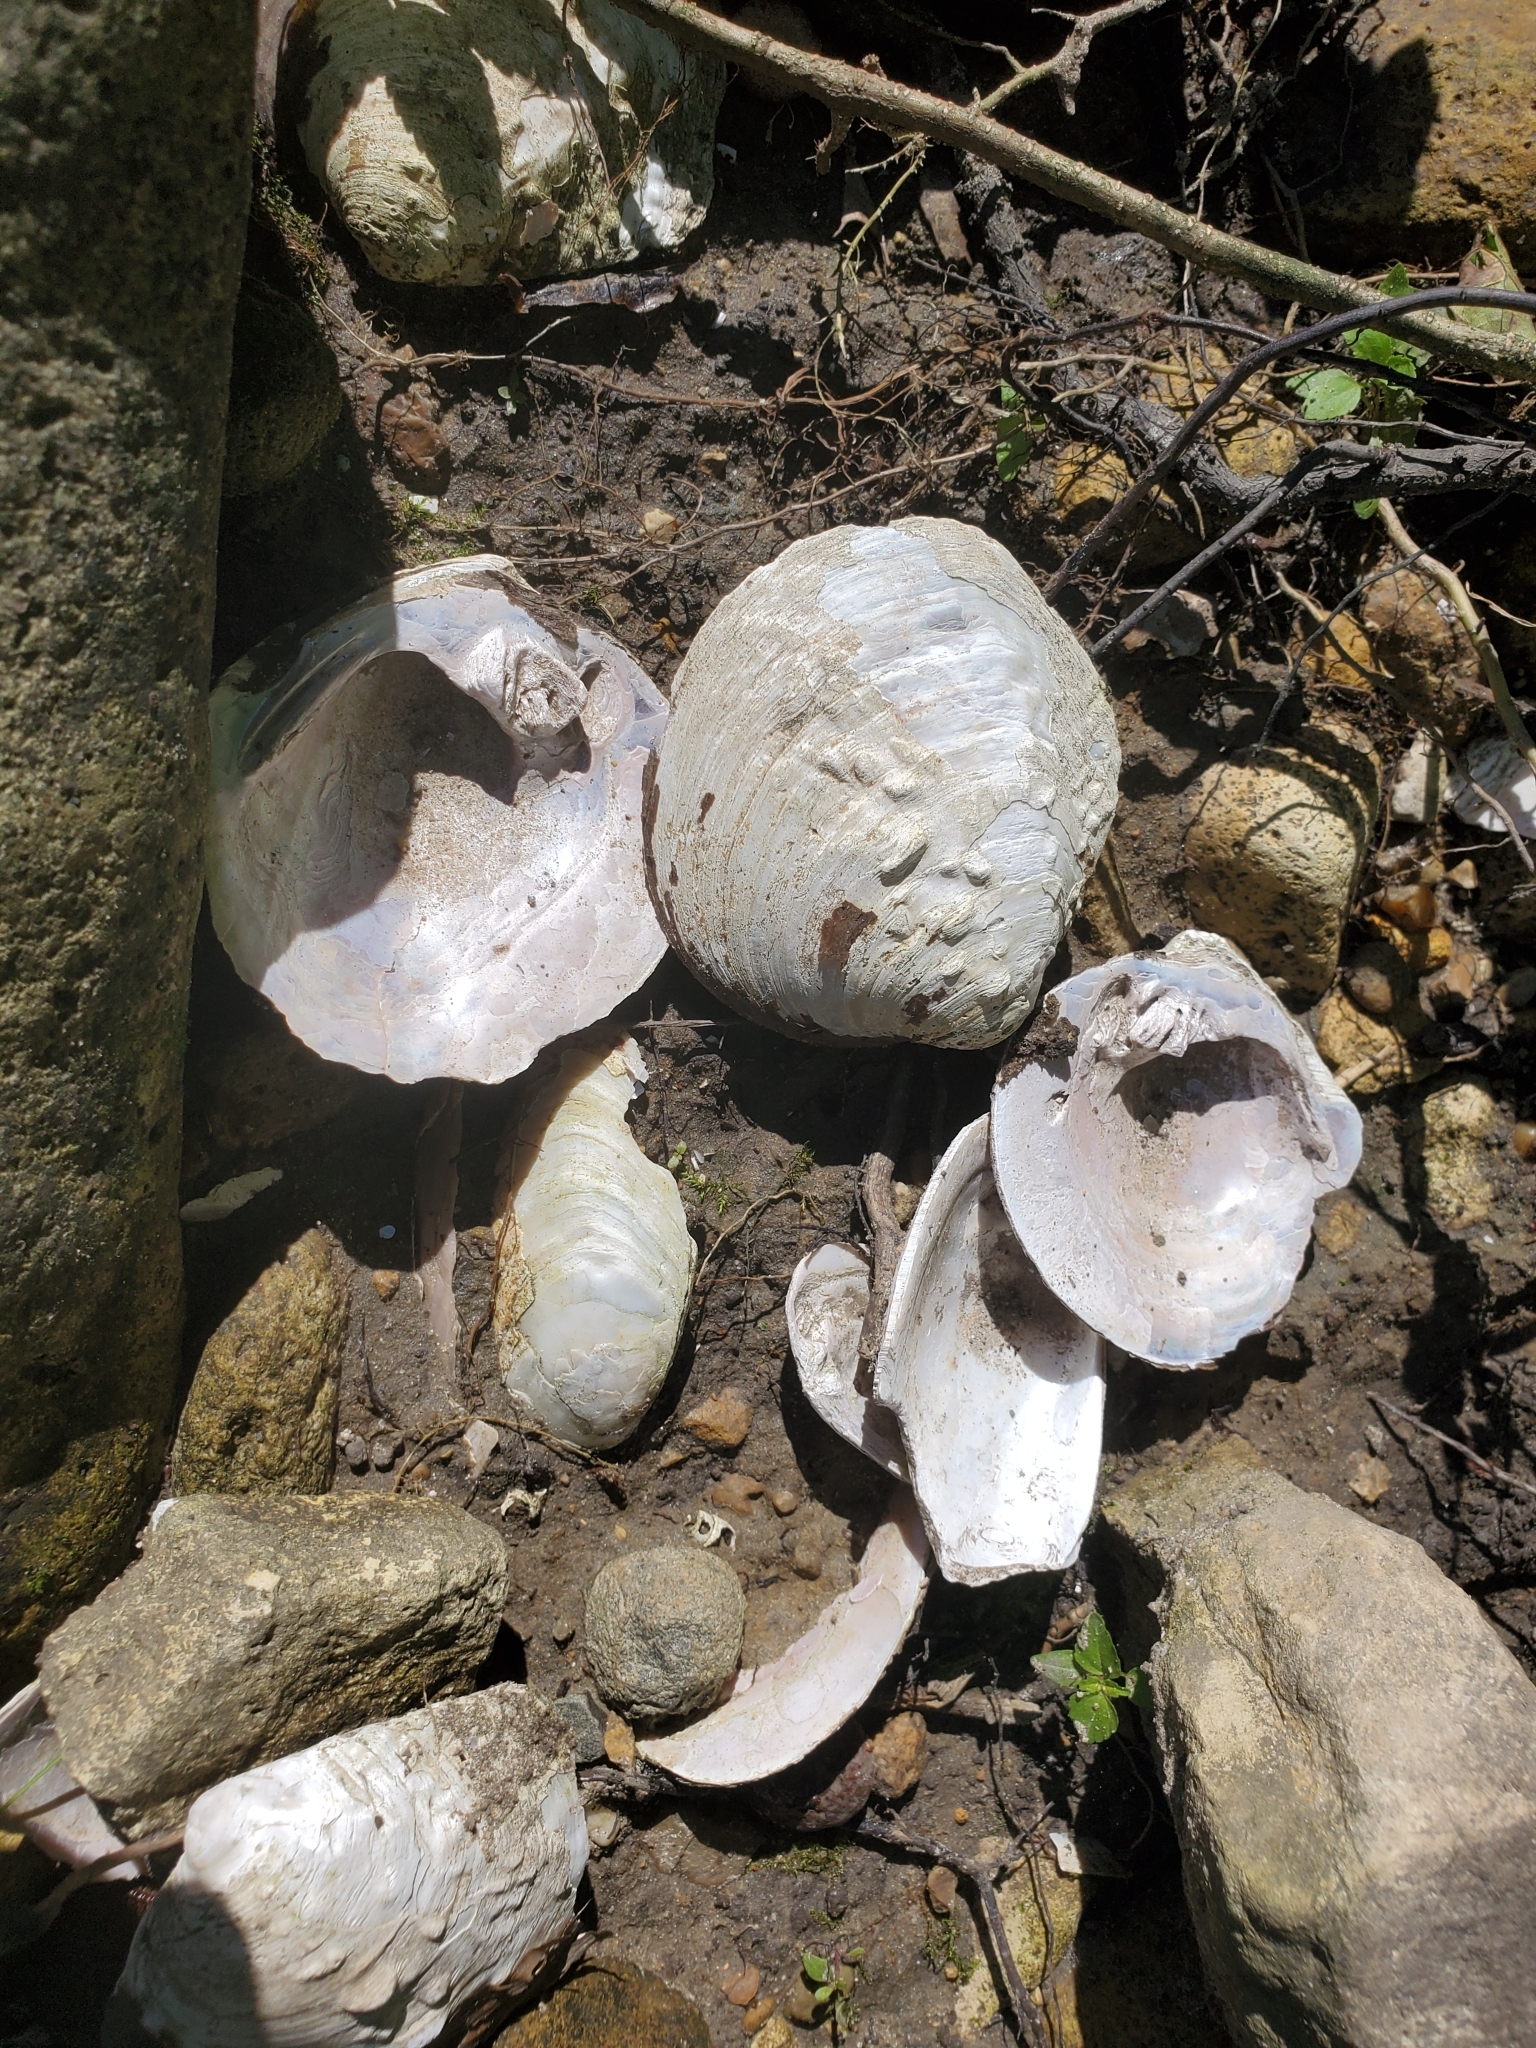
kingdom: Animalia
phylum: Mollusca
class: Bivalvia
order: Unionida
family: Unionidae
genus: Cyclonaias
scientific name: Cyclonaias tuberculata
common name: Purple wartyback
